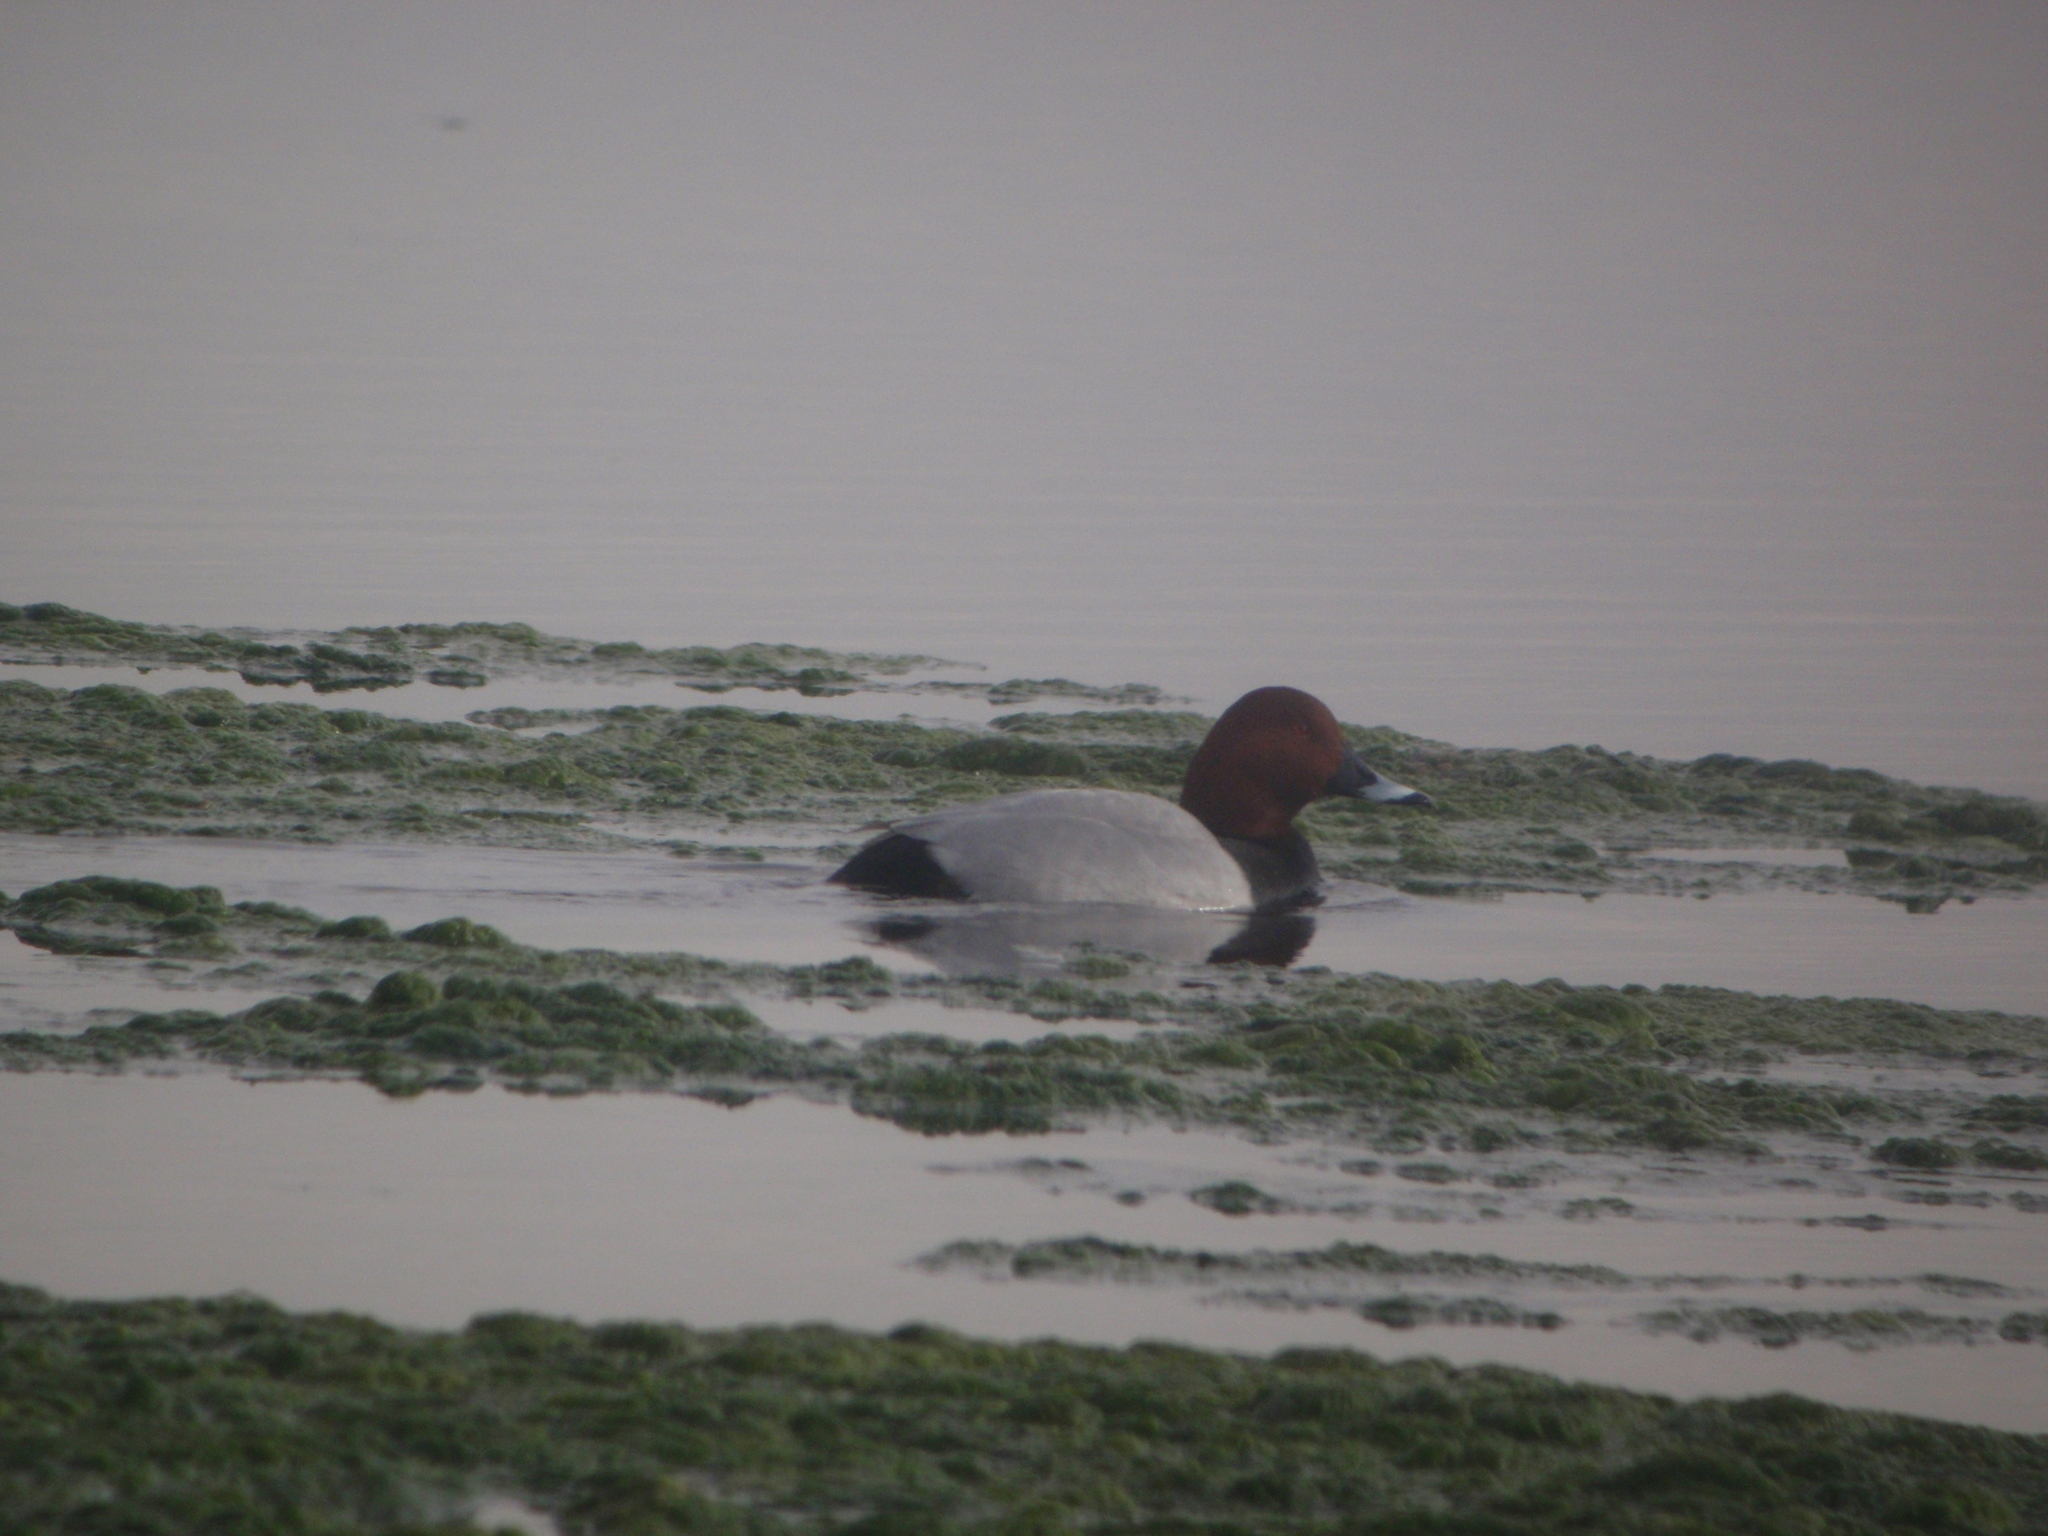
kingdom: Animalia
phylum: Chordata
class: Aves
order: Anseriformes
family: Anatidae
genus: Aythya
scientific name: Aythya ferina
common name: Common pochard
